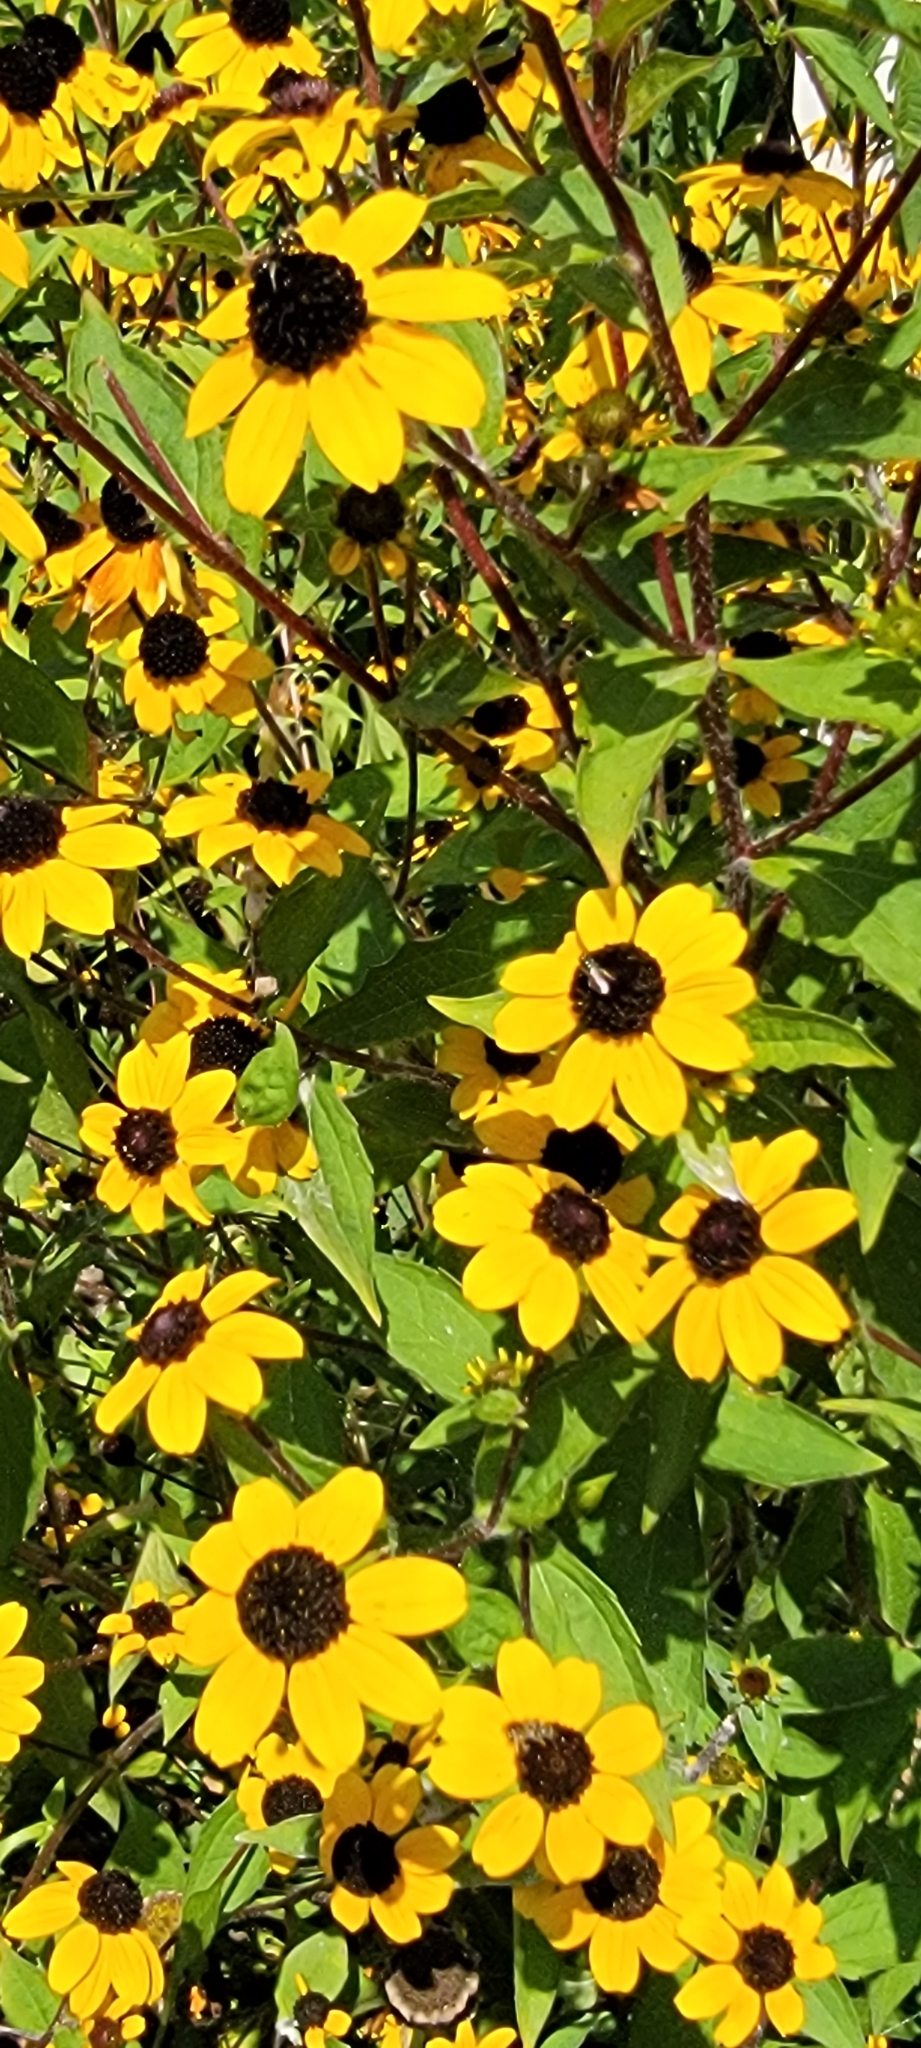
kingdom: Plantae
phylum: Tracheophyta
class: Magnoliopsida
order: Asterales
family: Asteraceae
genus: Rudbeckia
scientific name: Rudbeckia triloba
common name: Thin-leaved coneflower
